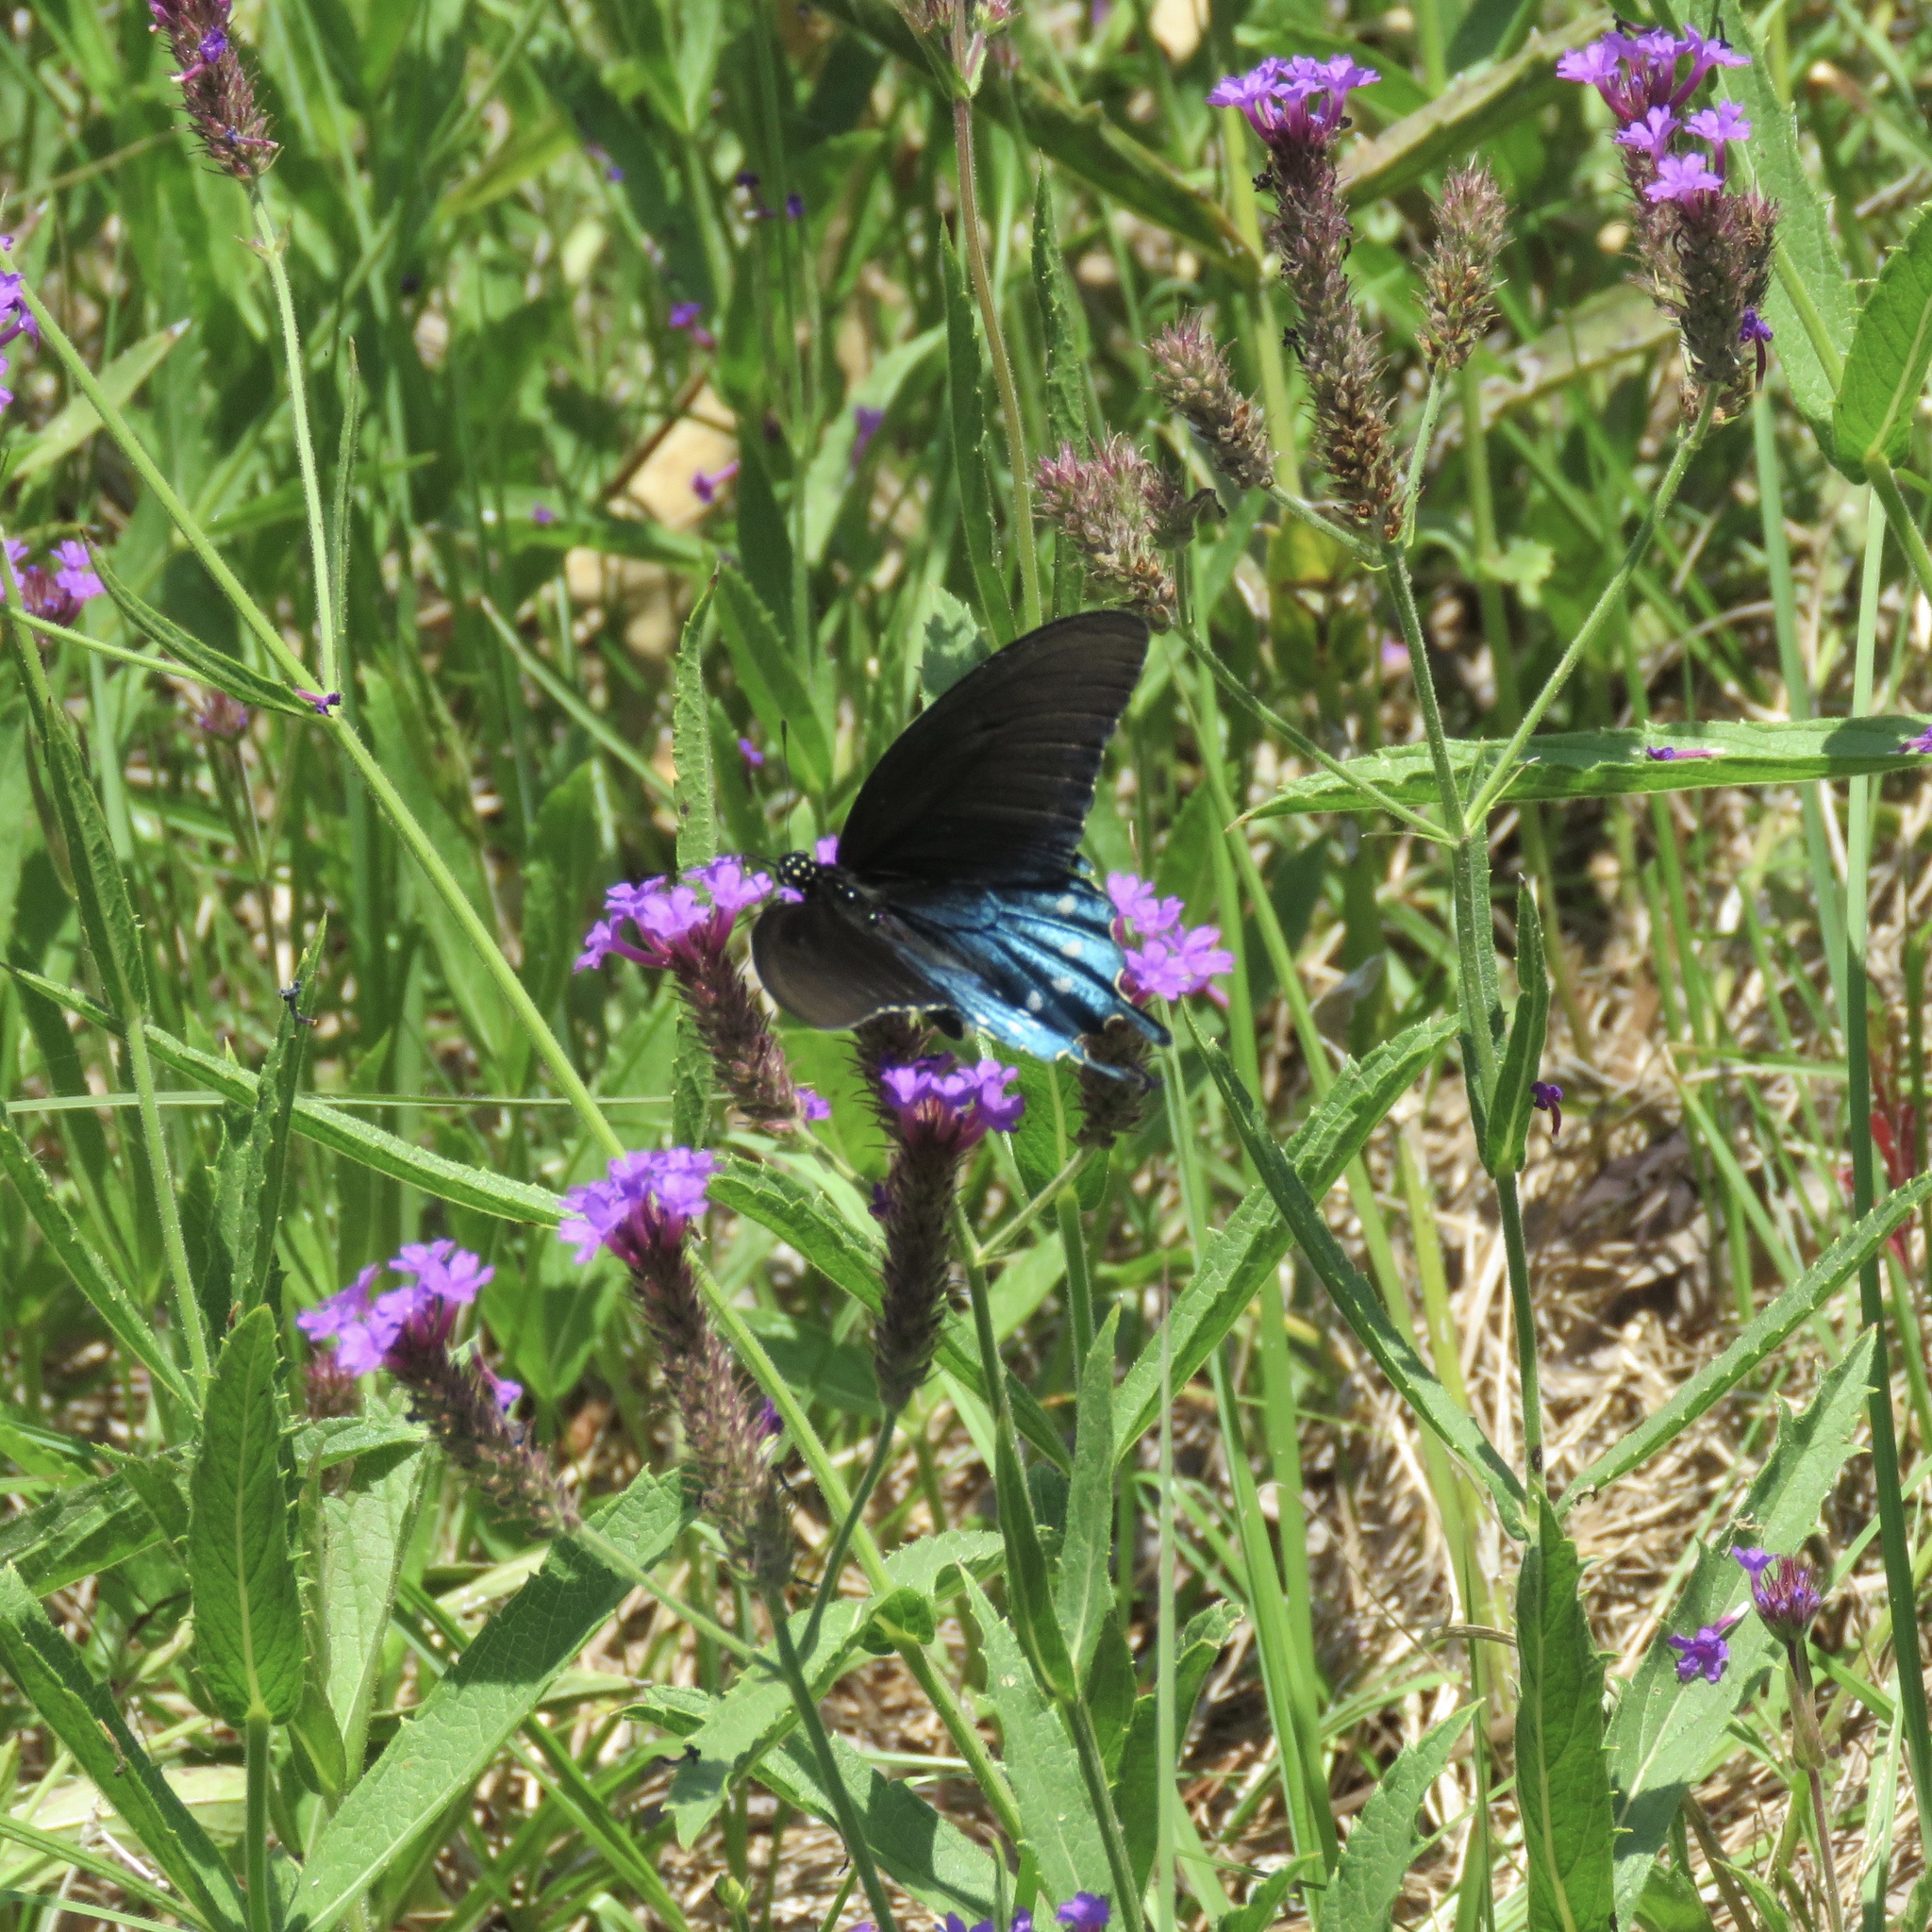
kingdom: Animalia
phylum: Arthropoda
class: Insecta
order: Lepidoptera
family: Papilionidae
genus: Battus
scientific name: Battus philenor
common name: Pipevine swallowtail
